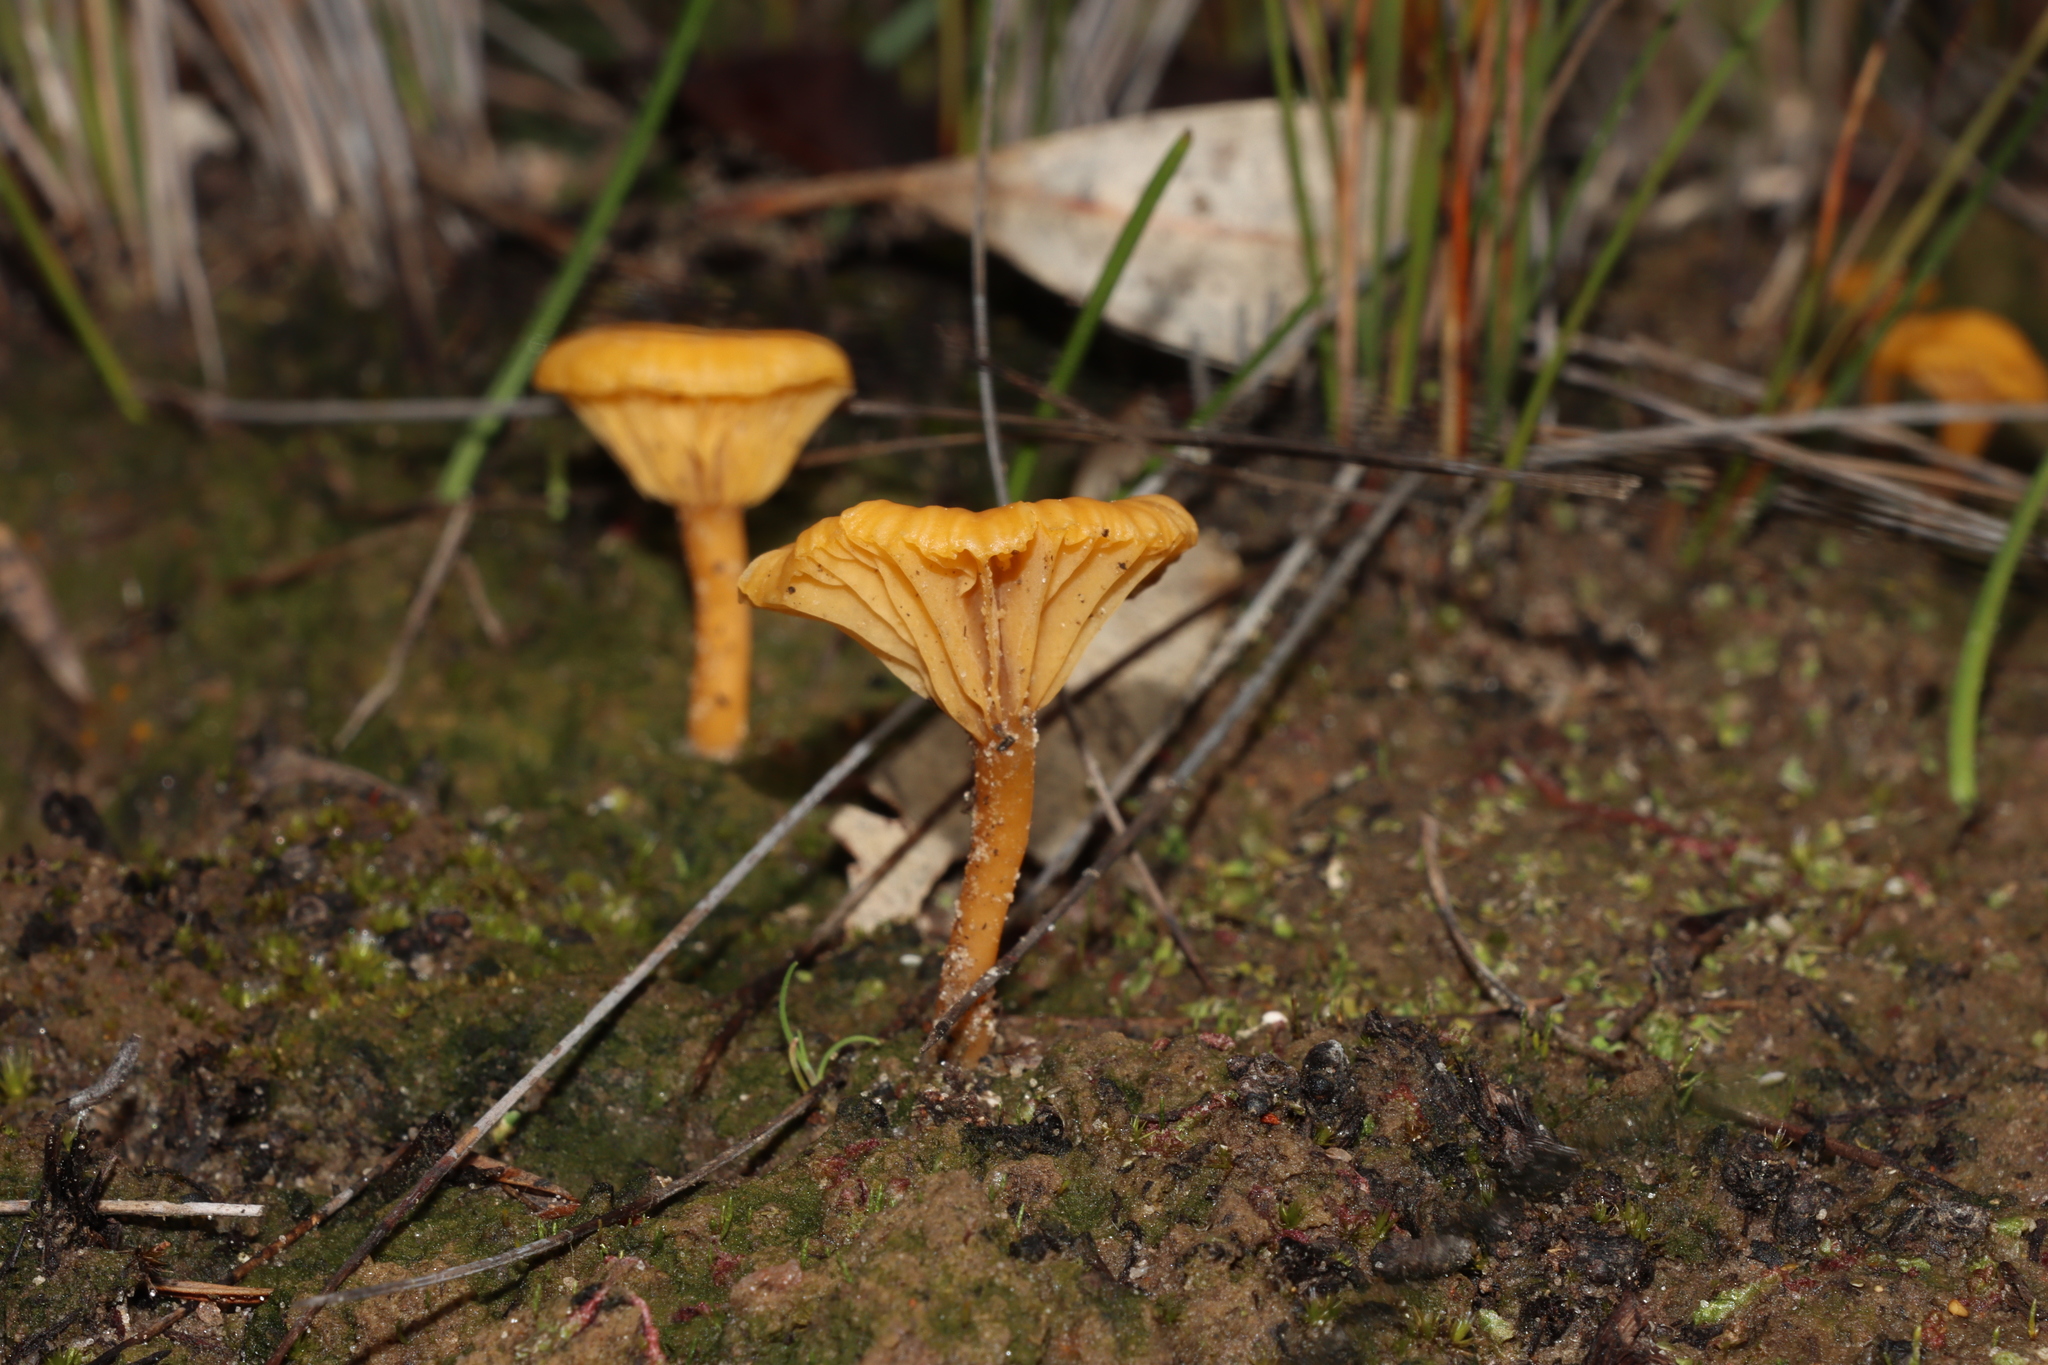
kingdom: Fungi
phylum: Basidiomycota
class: Agaricomycetes
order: Agaricales
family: Hygrophoraceae
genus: Lichenomphalia
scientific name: Lichenomphalia chromacea
